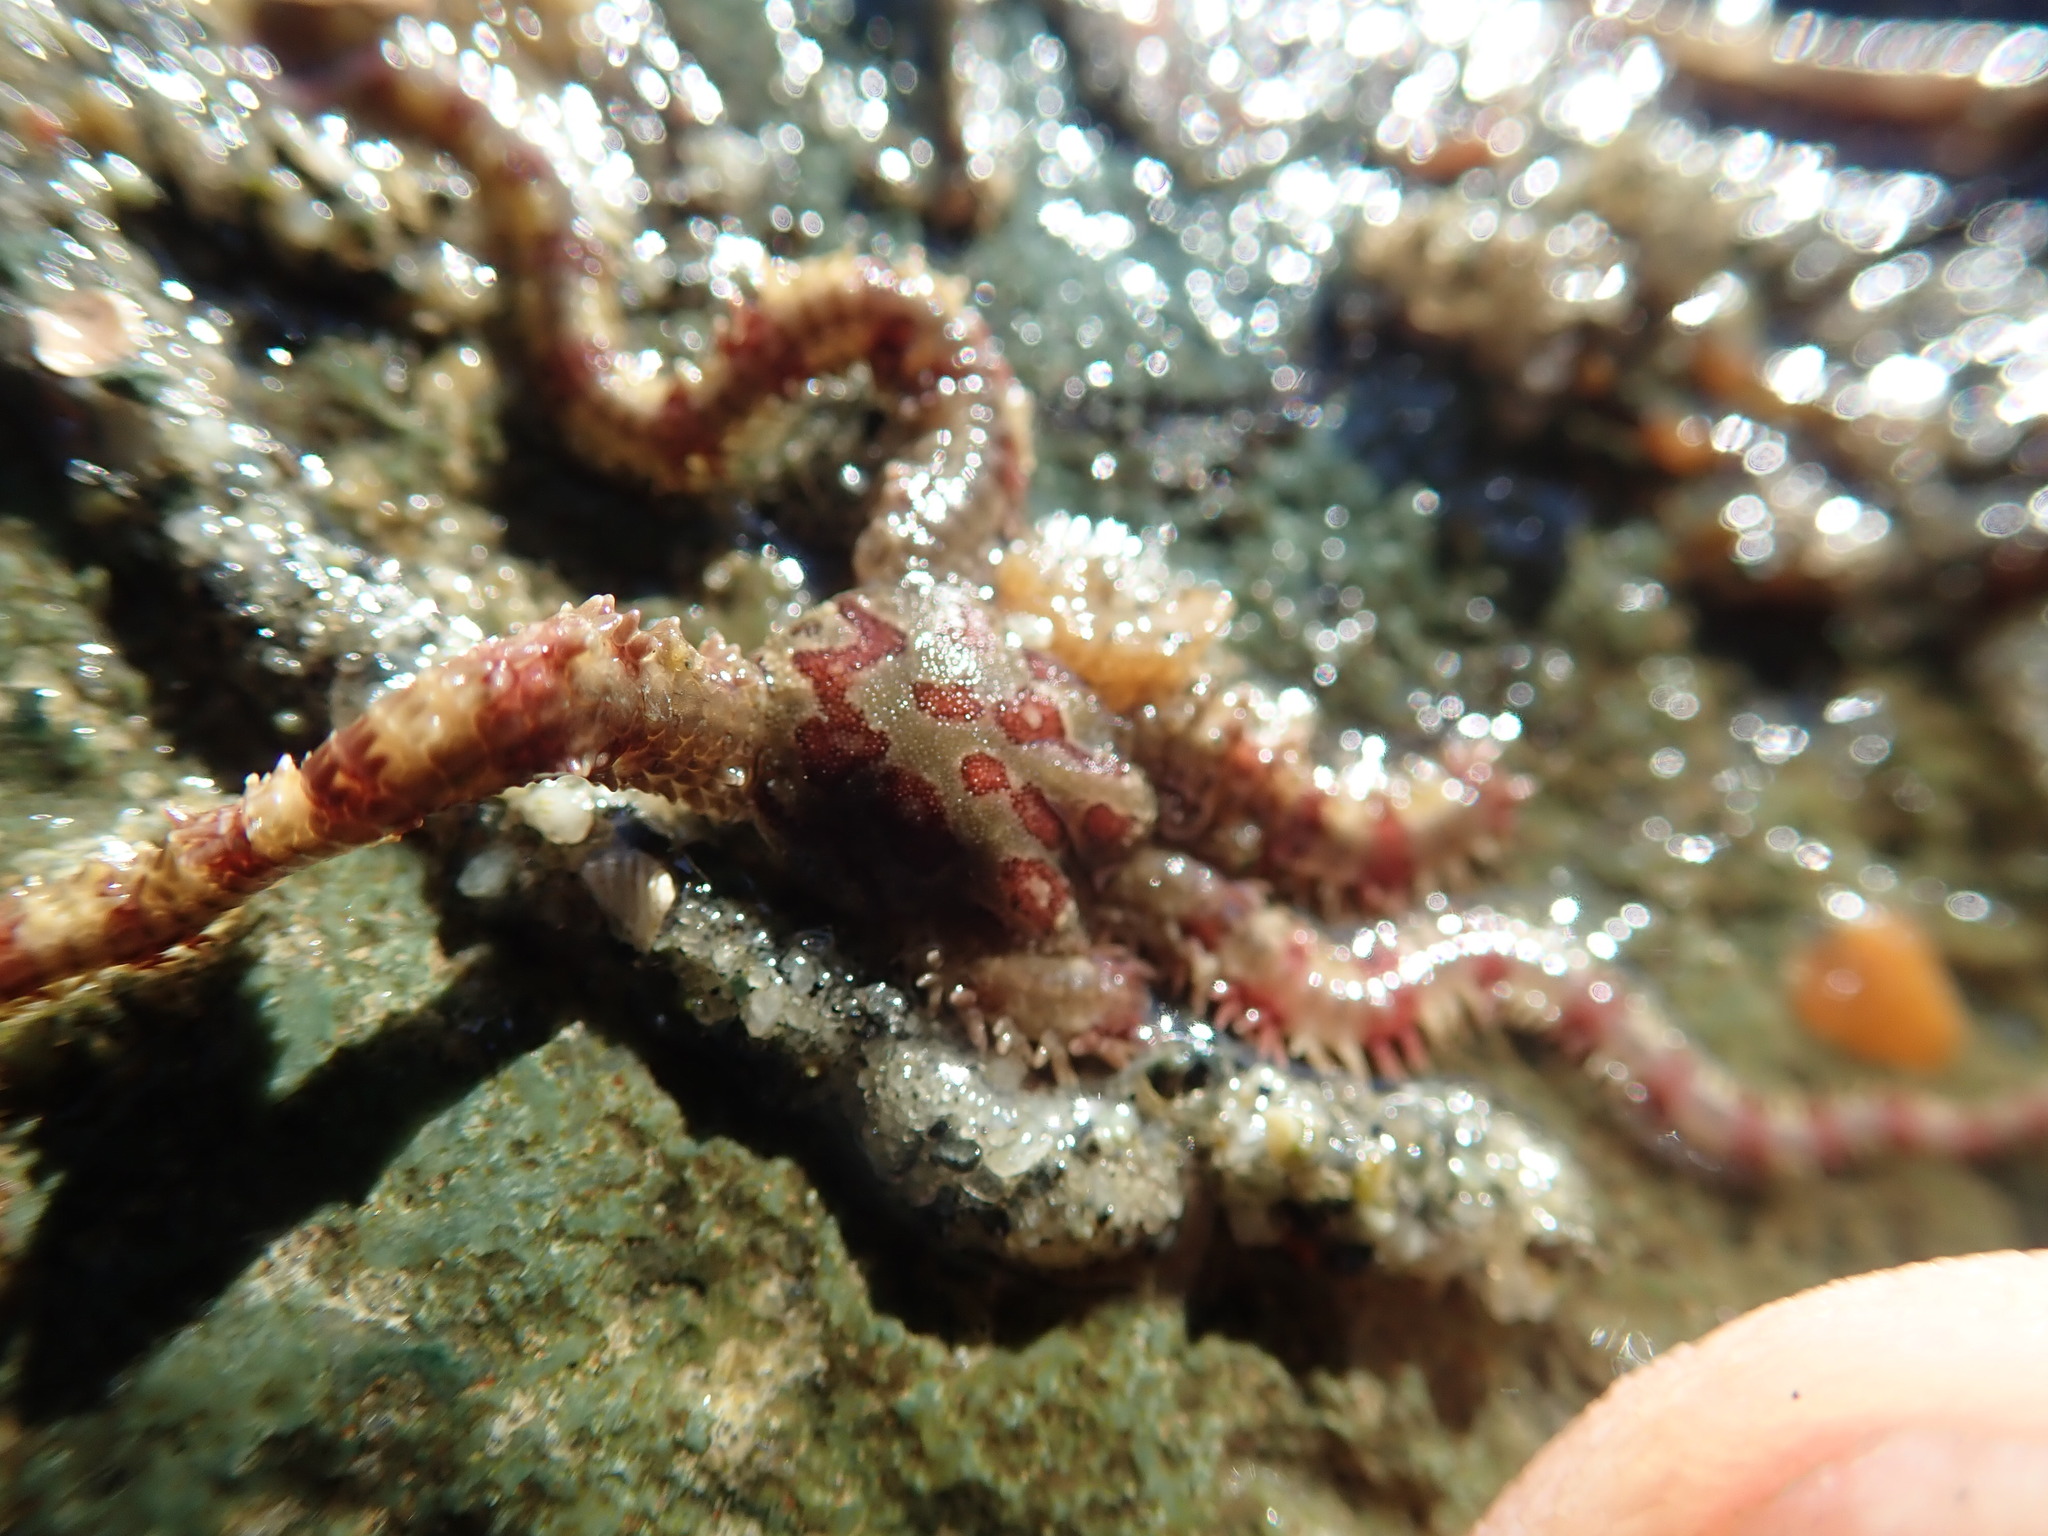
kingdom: Animalia
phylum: Echinodermata
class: Ophiuroidea
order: Amphilepidida
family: Ophiopholidae
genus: Ophiopholis
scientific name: Ophiopholis aculeata
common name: Crevice brittlestar
